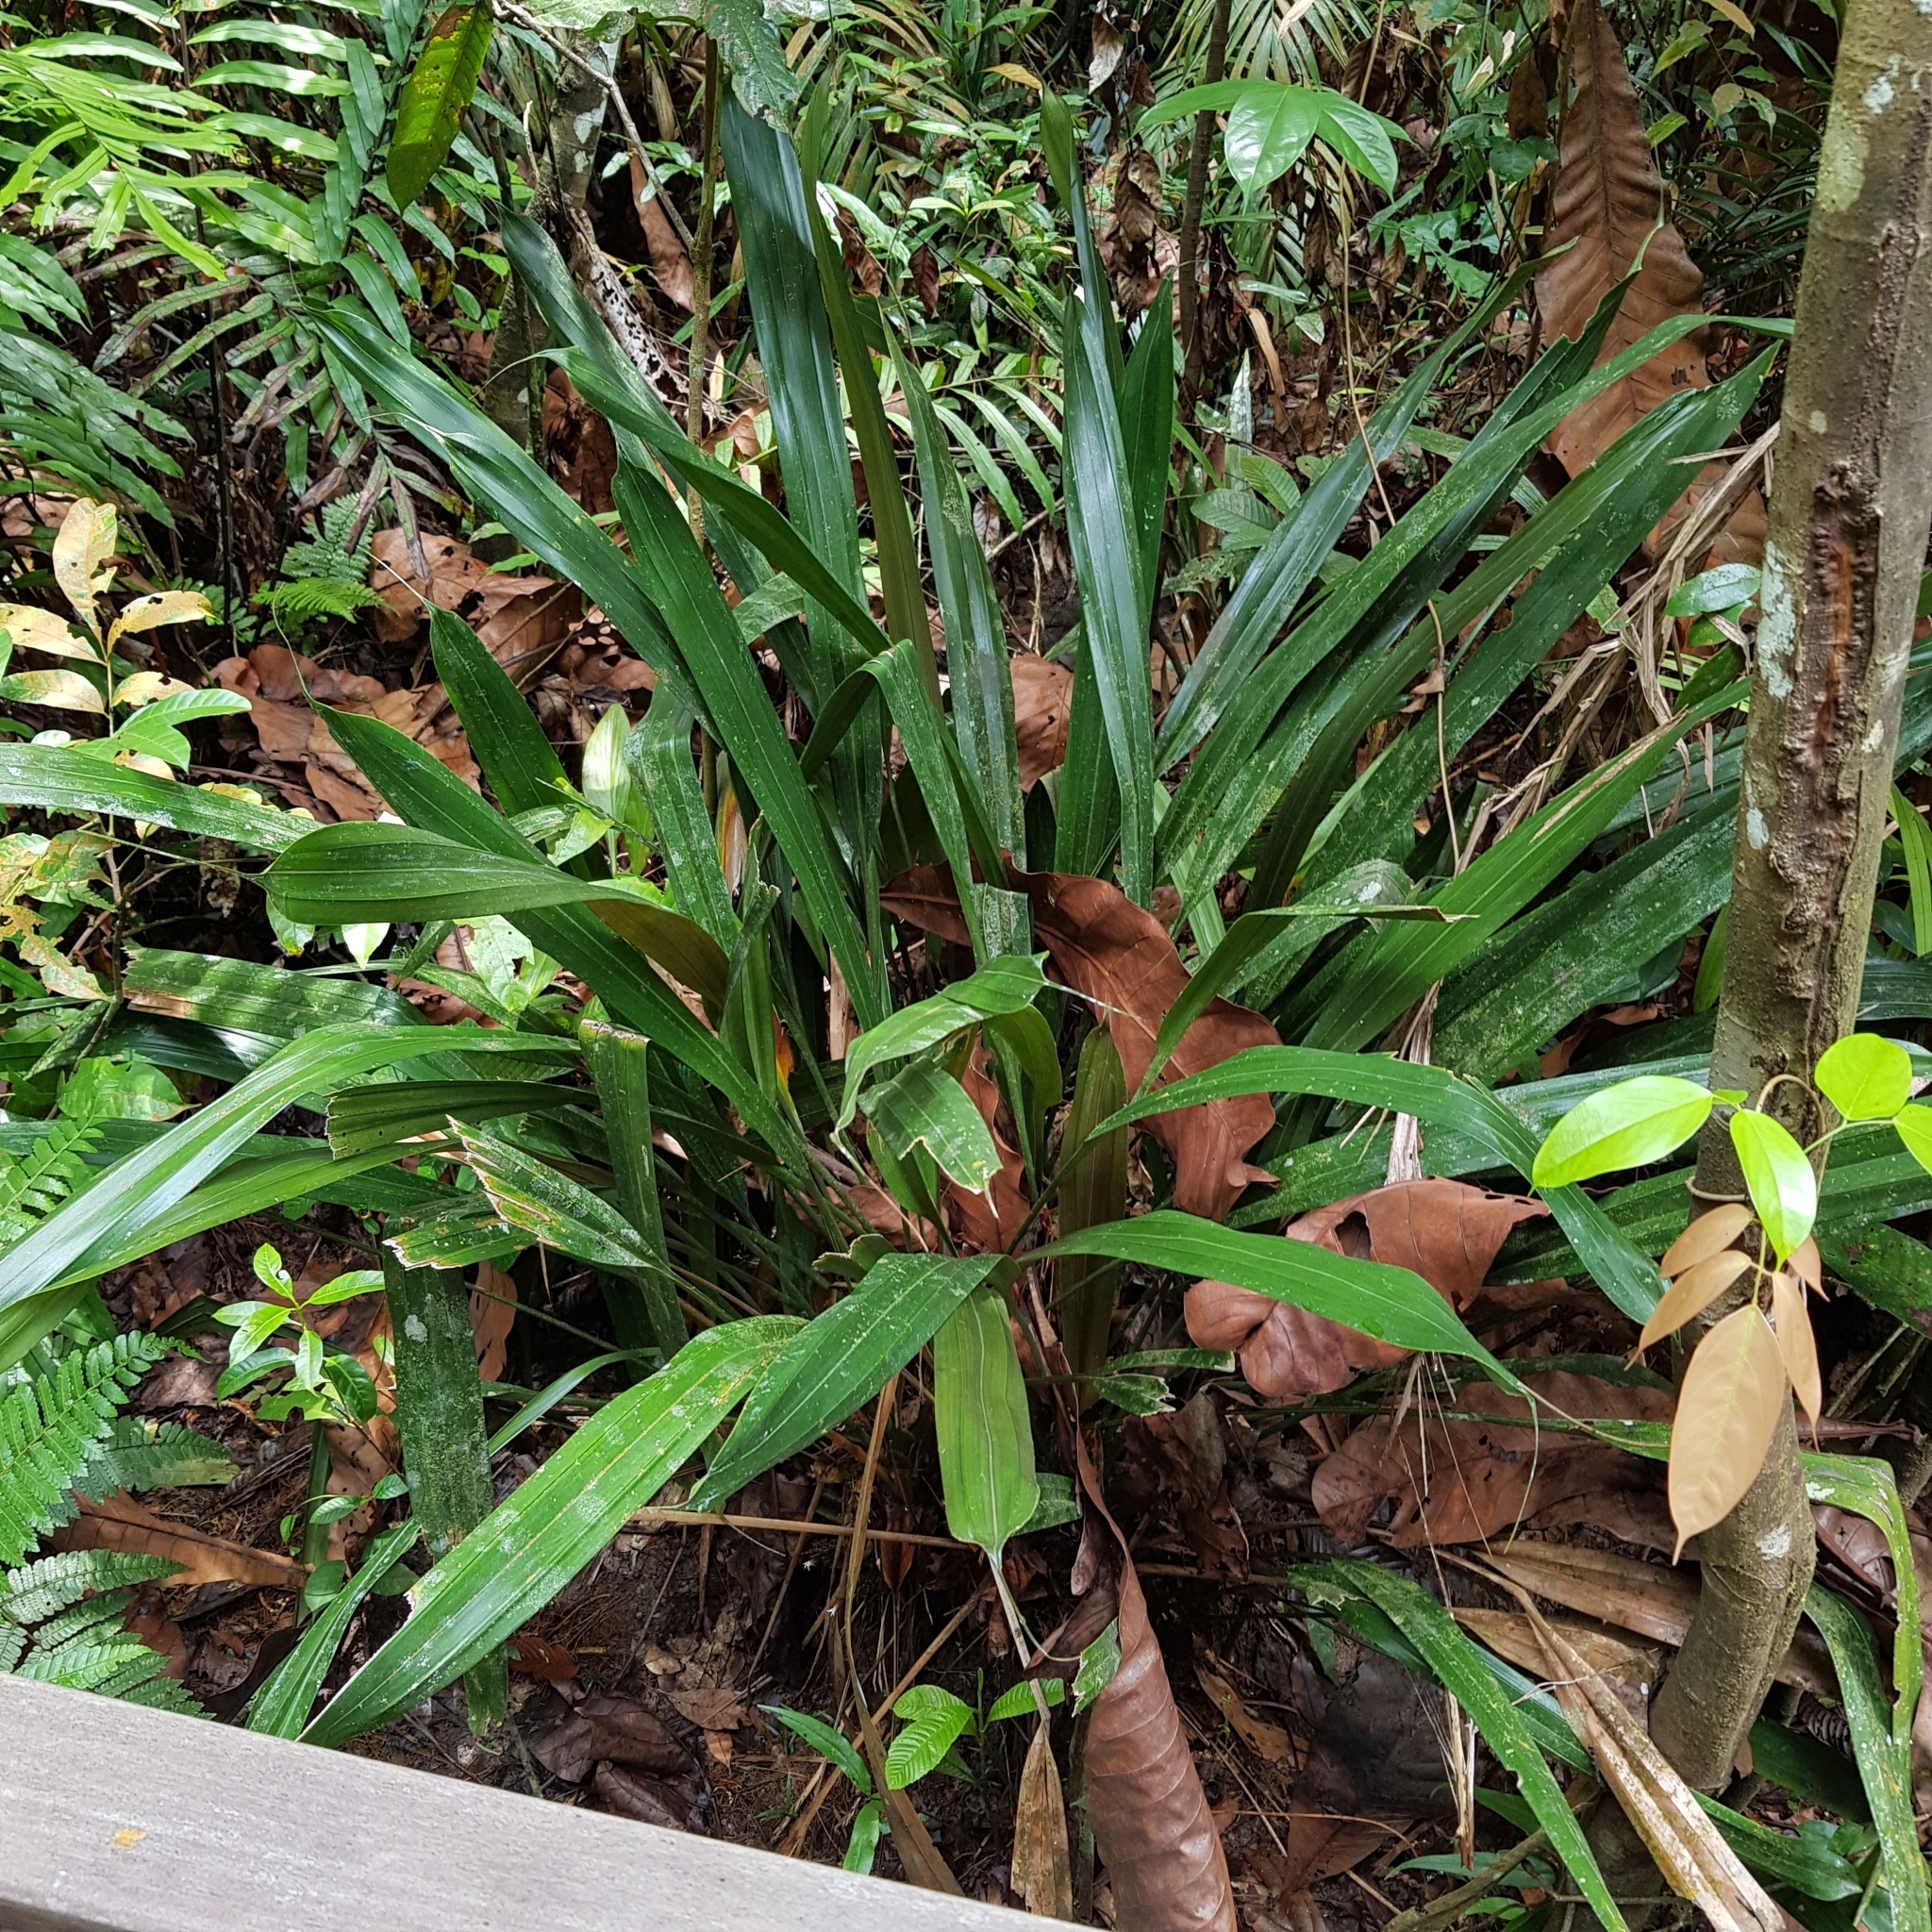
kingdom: Plantae
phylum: Tracheophyta
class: Liliopsida
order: Poales
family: Cyperaceae
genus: Mapania
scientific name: Mapania cuspidata
